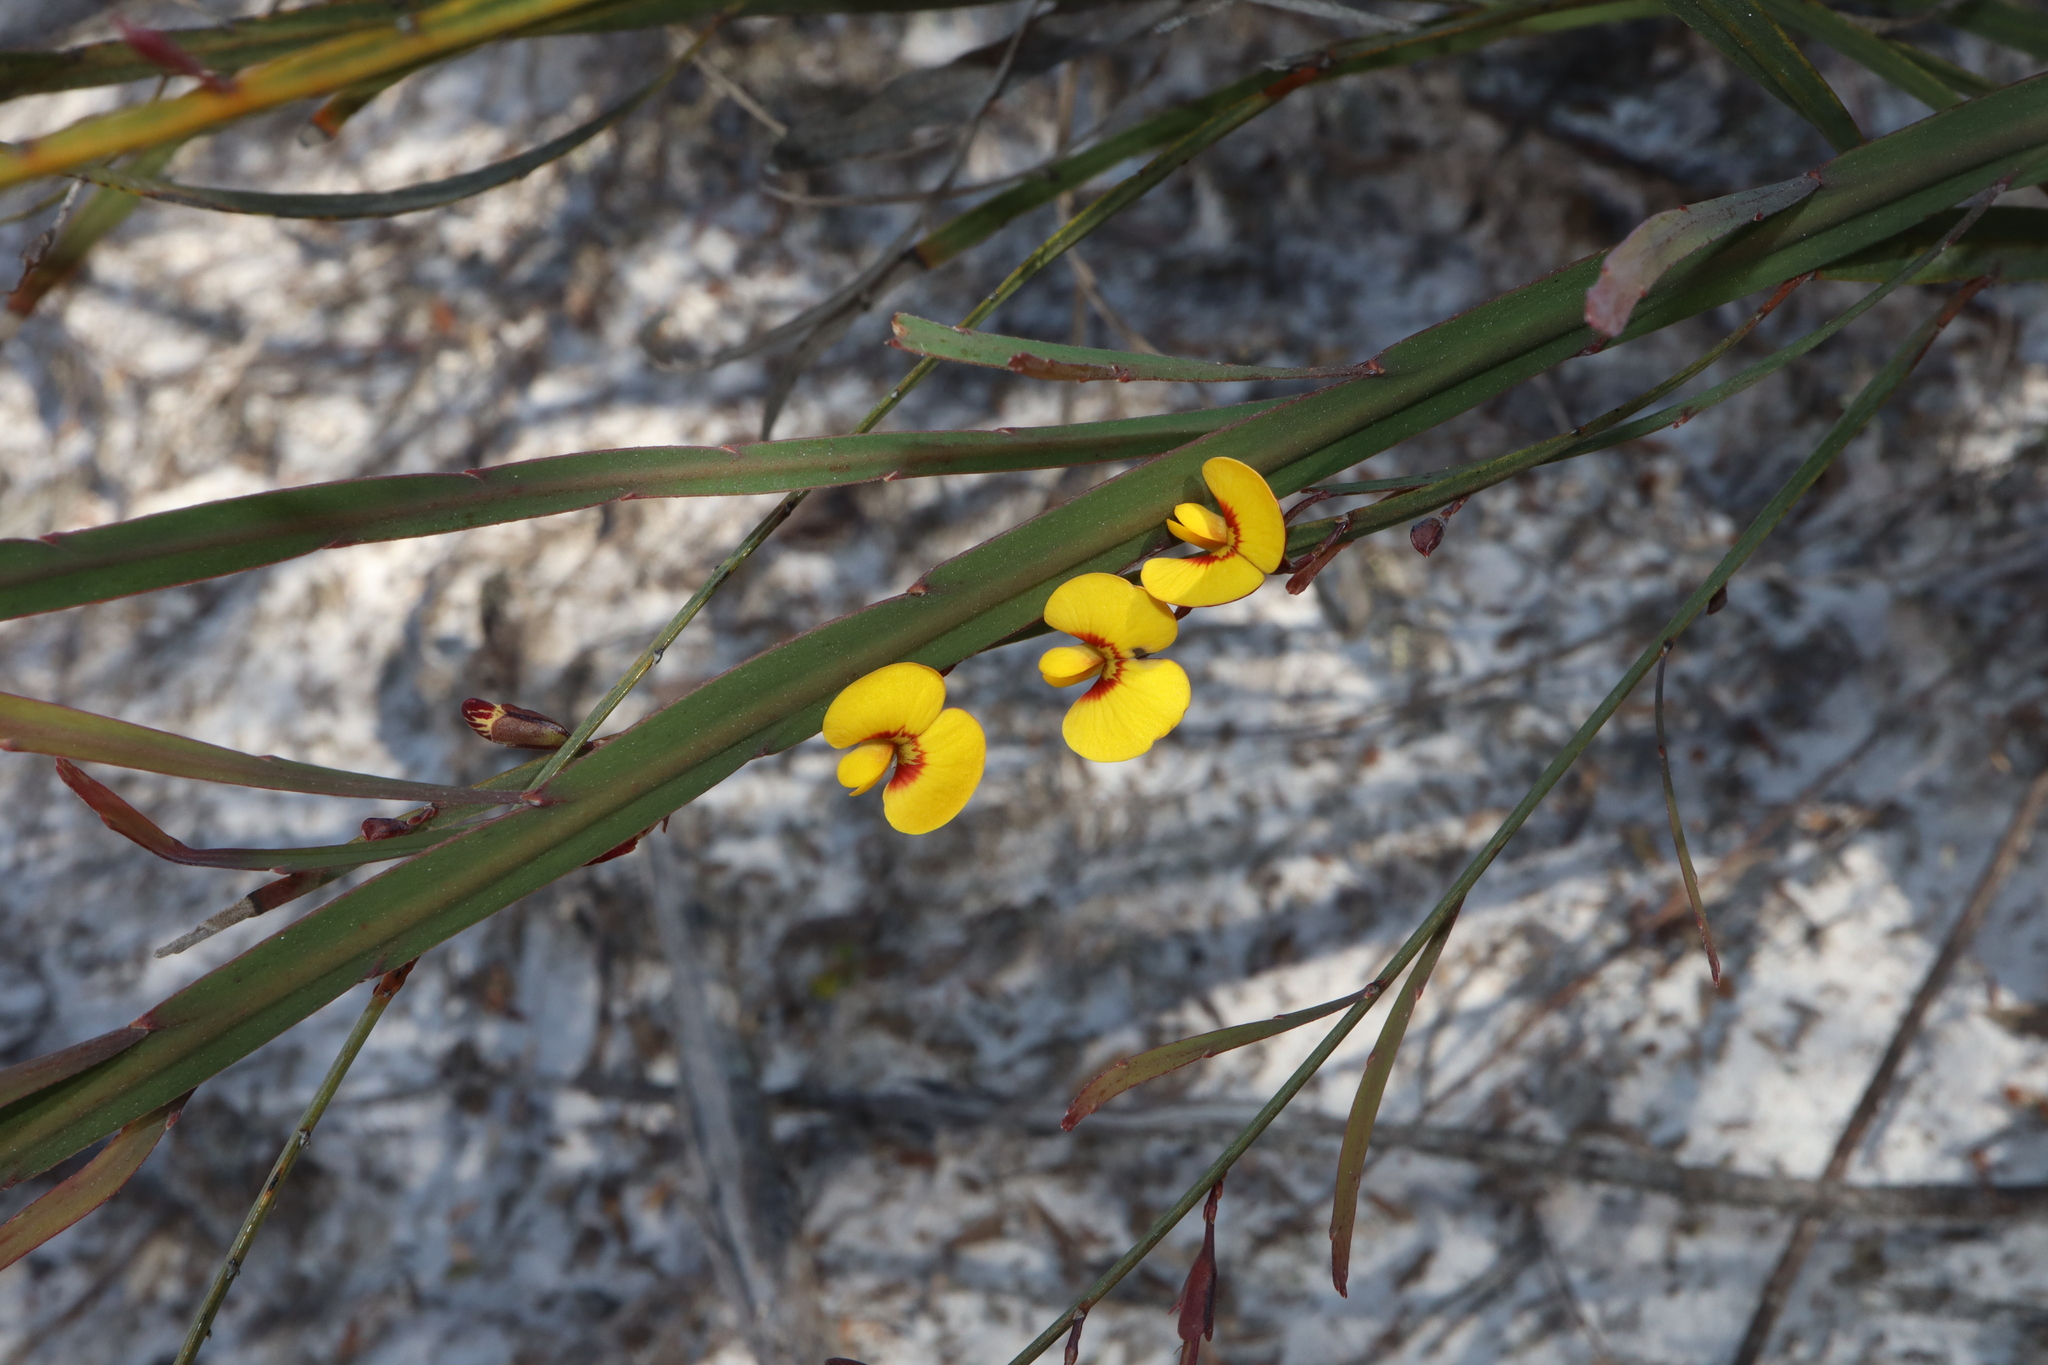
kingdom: Plantae
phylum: Tracheophyta
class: Magnoliopsida
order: Fabales
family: Fabaceae
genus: Bossiaea
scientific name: Bossiaea ensata
